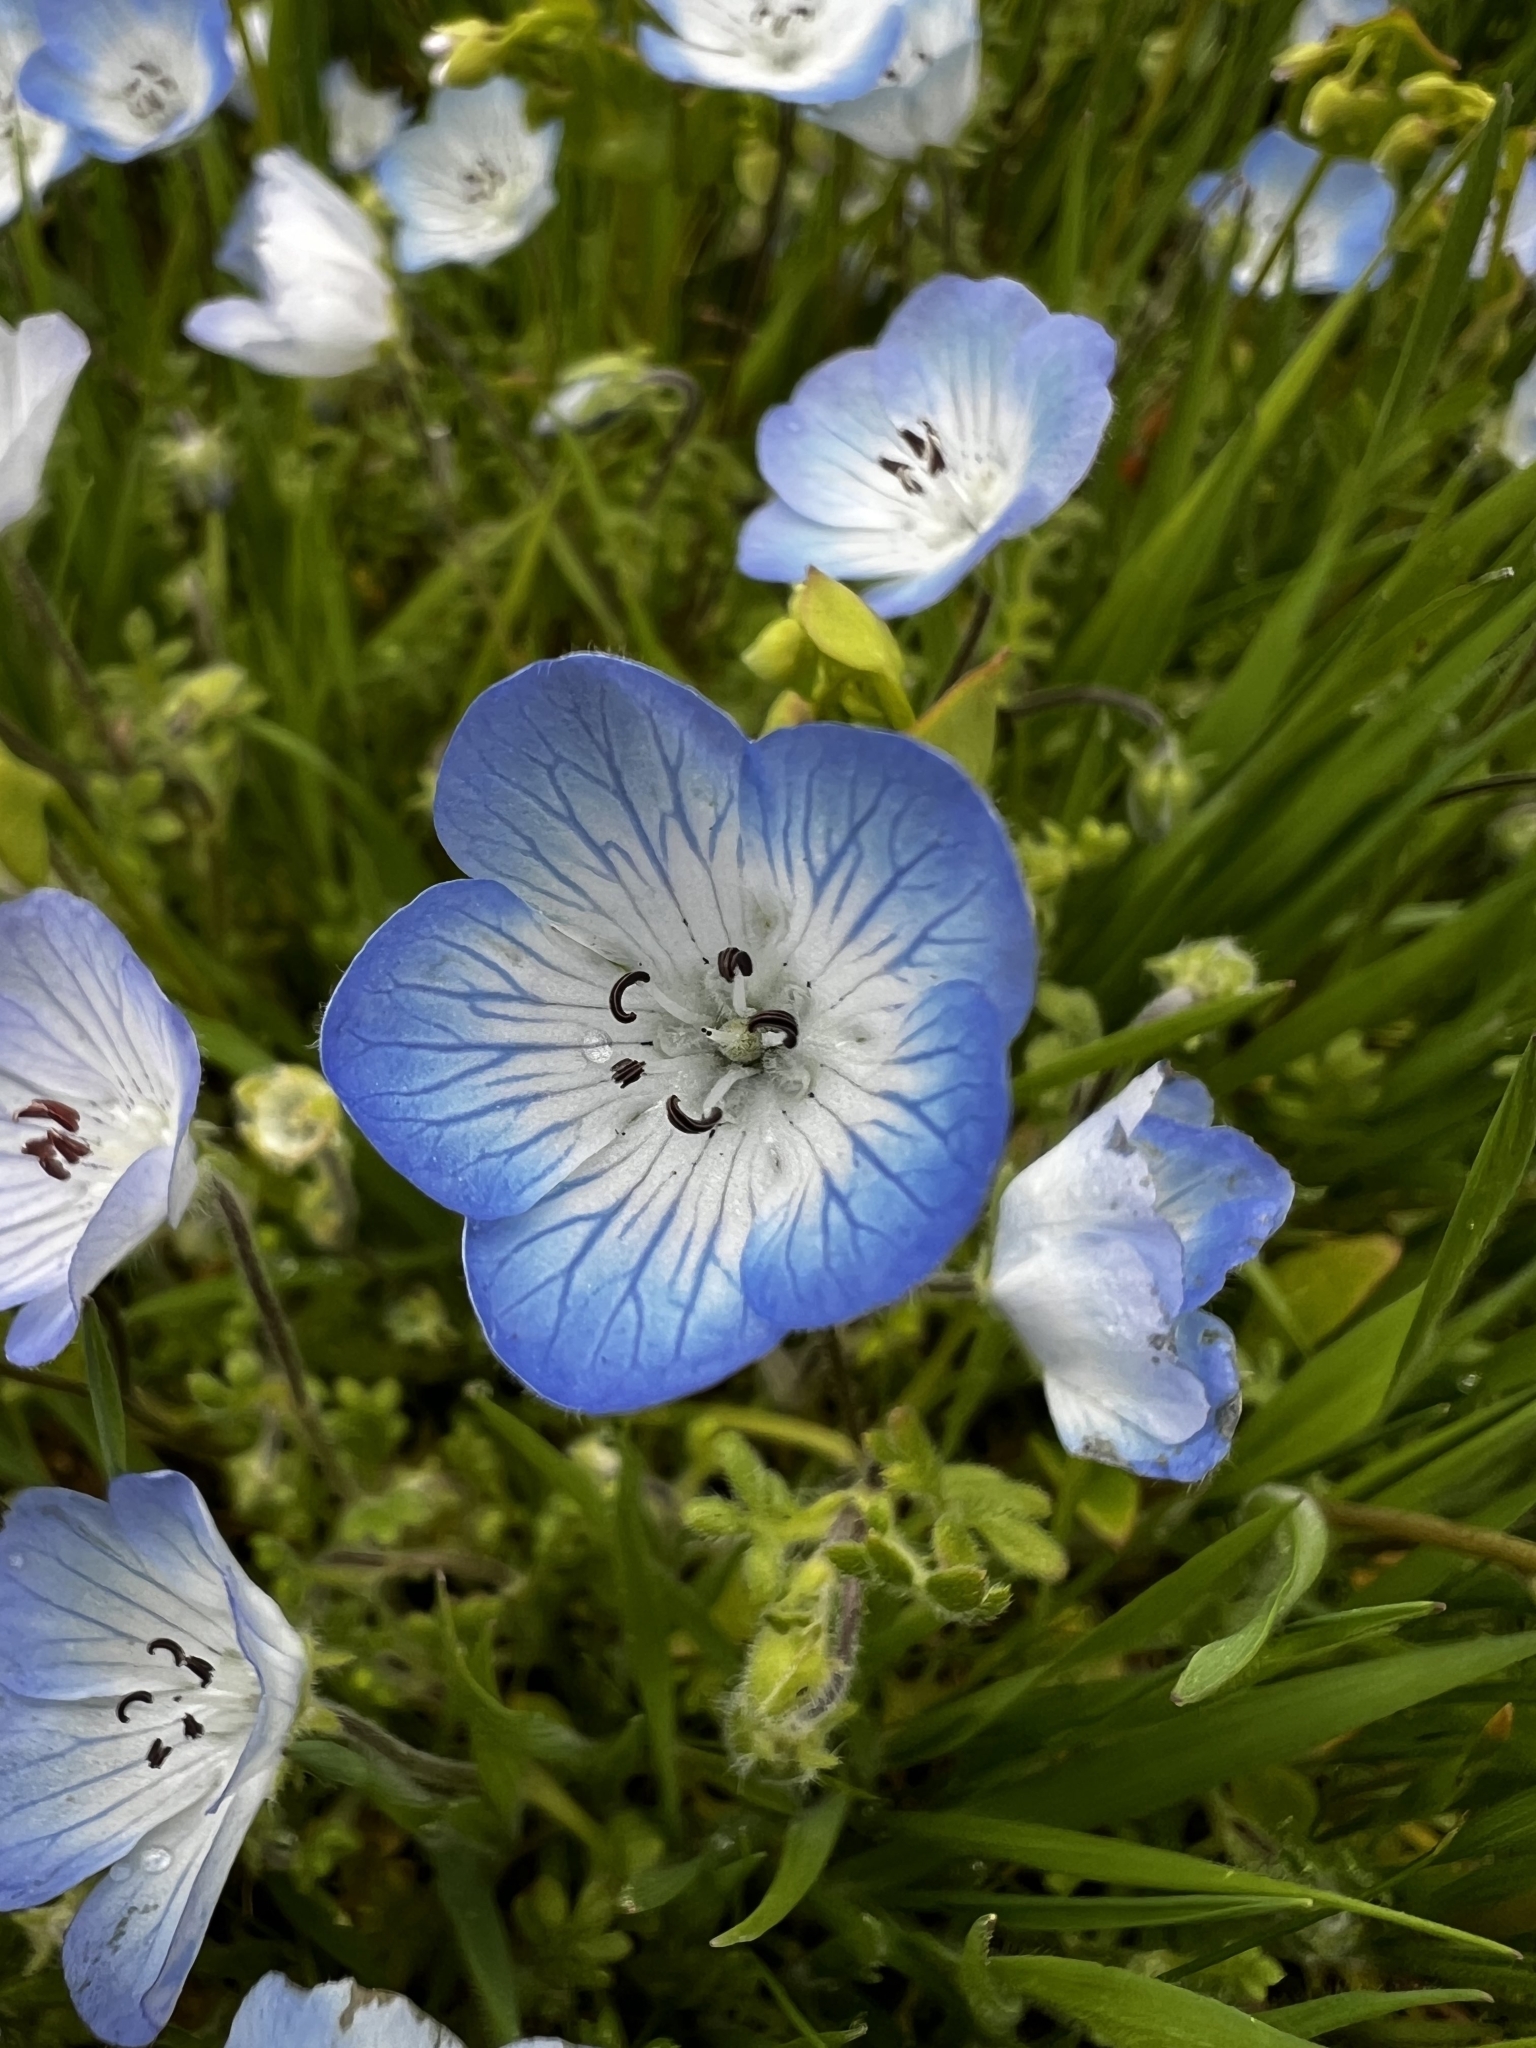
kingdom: Plantae
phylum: Tracheophyta
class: Magnoliopsida
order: Boraginales
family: Hydrophyllaceae
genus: Nemophila
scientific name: Nemophila menziesii
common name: Baby's-blue-eyes
